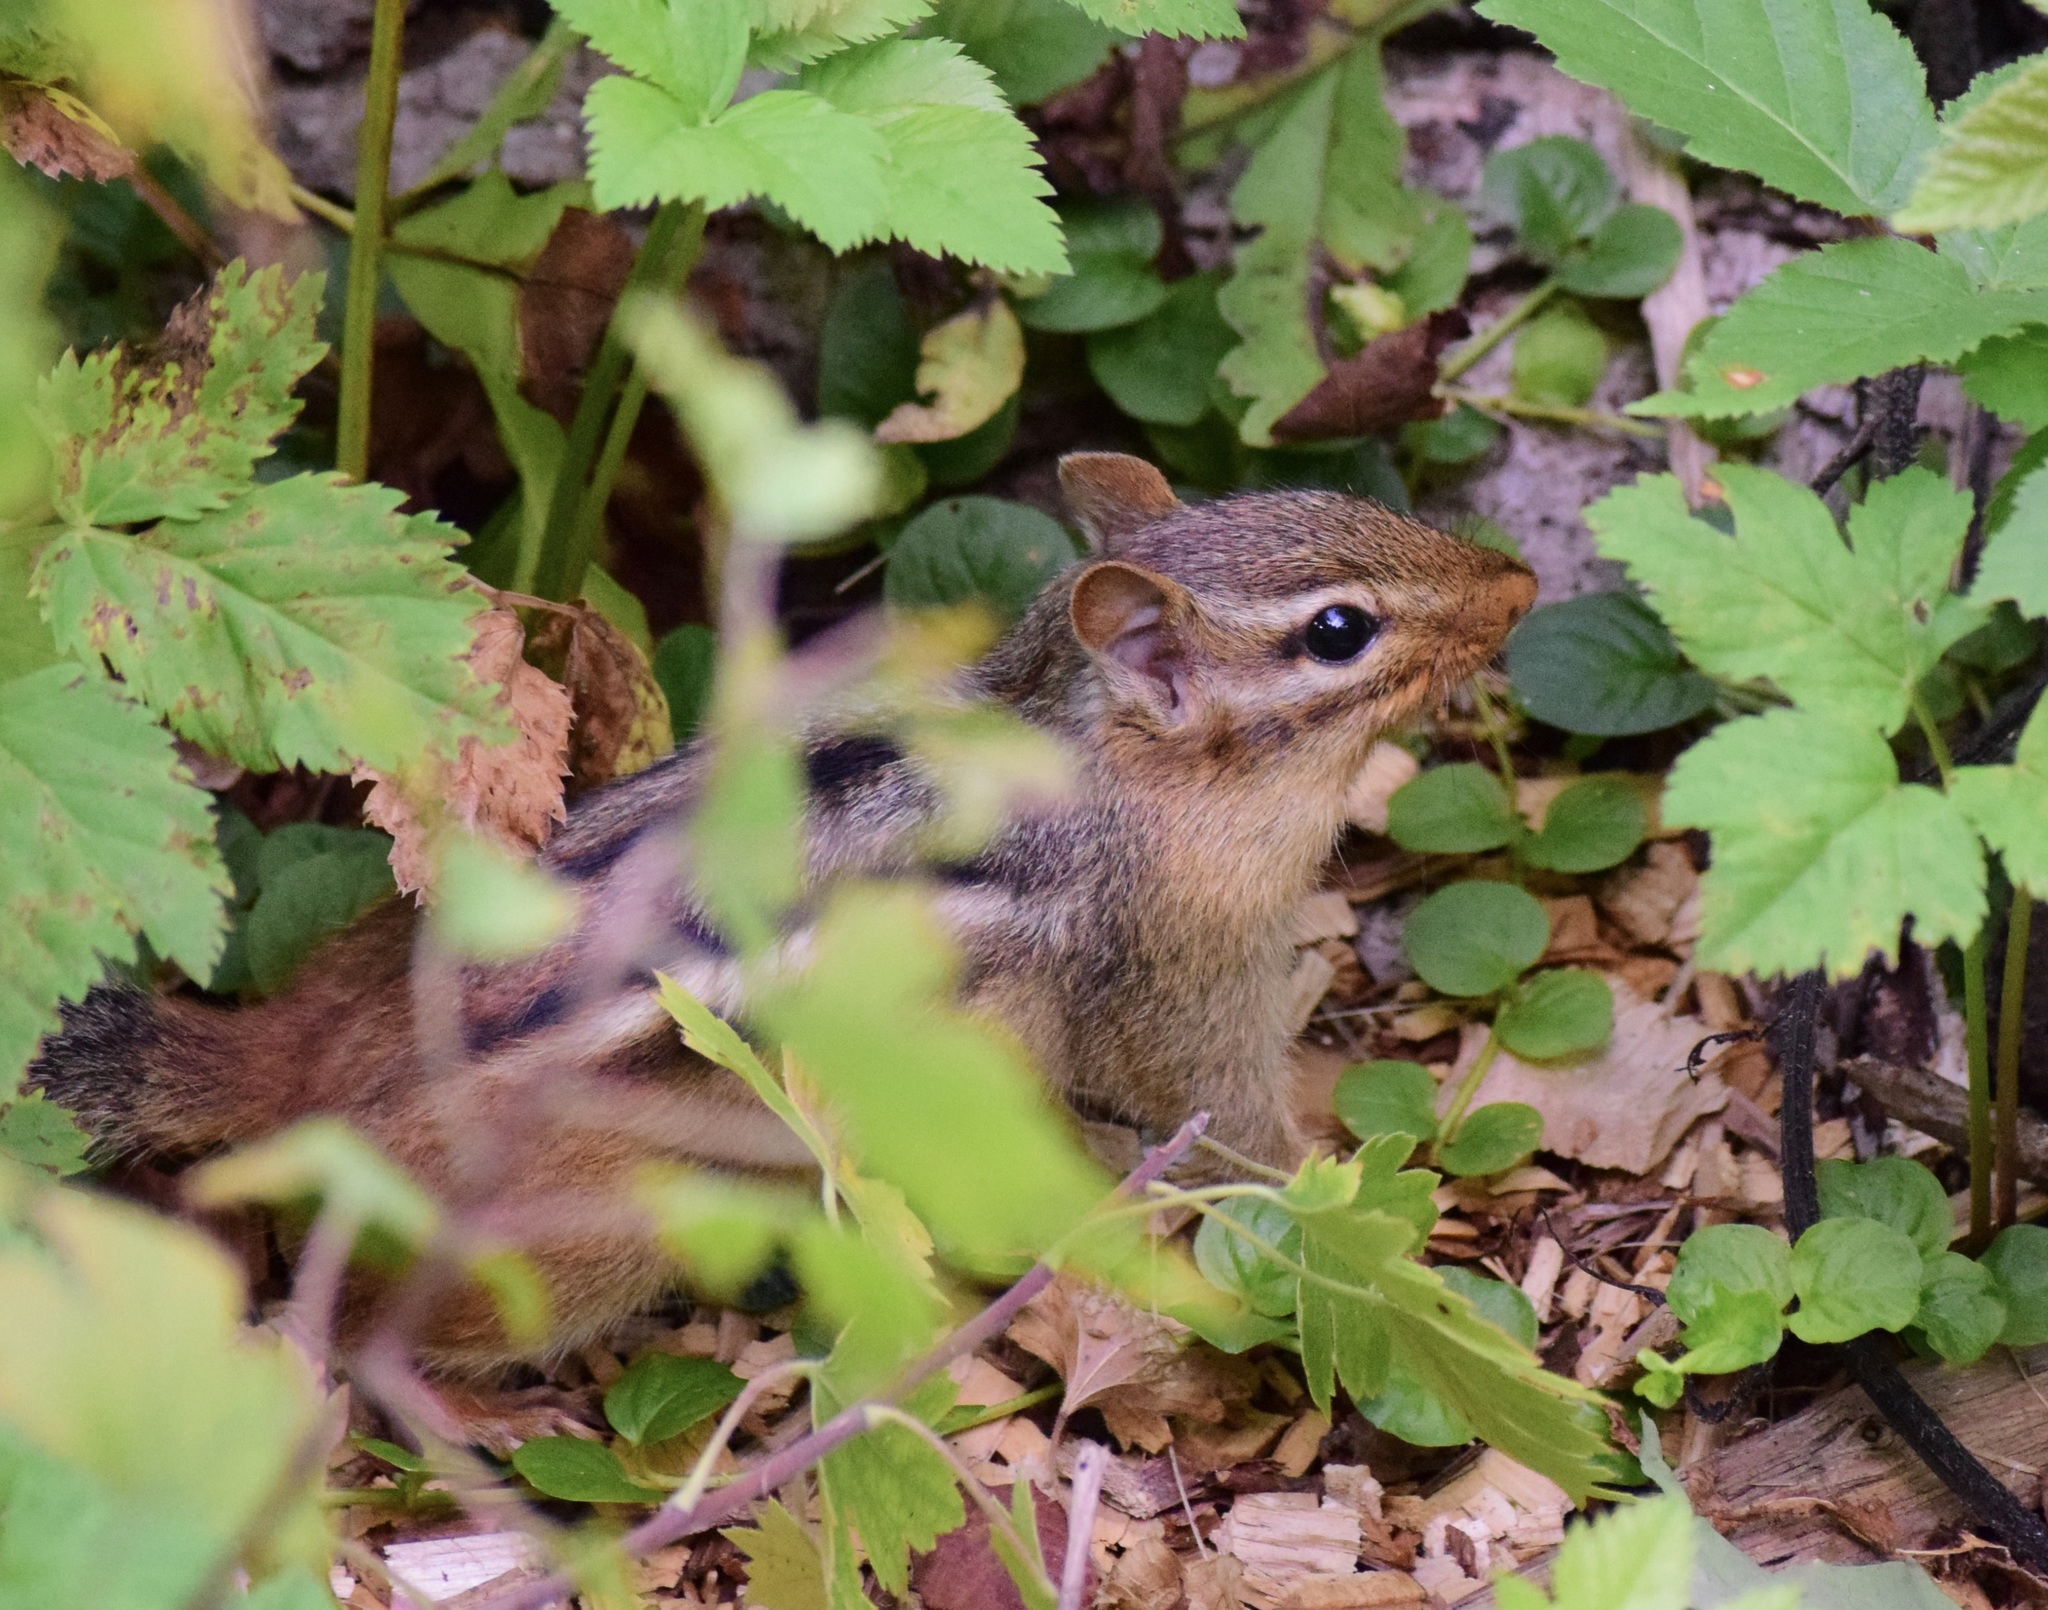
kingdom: Animalia
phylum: Chordata
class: Mammalia
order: Rodentia
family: Sciuridae
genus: Tamias
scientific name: Tamias striatus
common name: Eastern chipmunk
